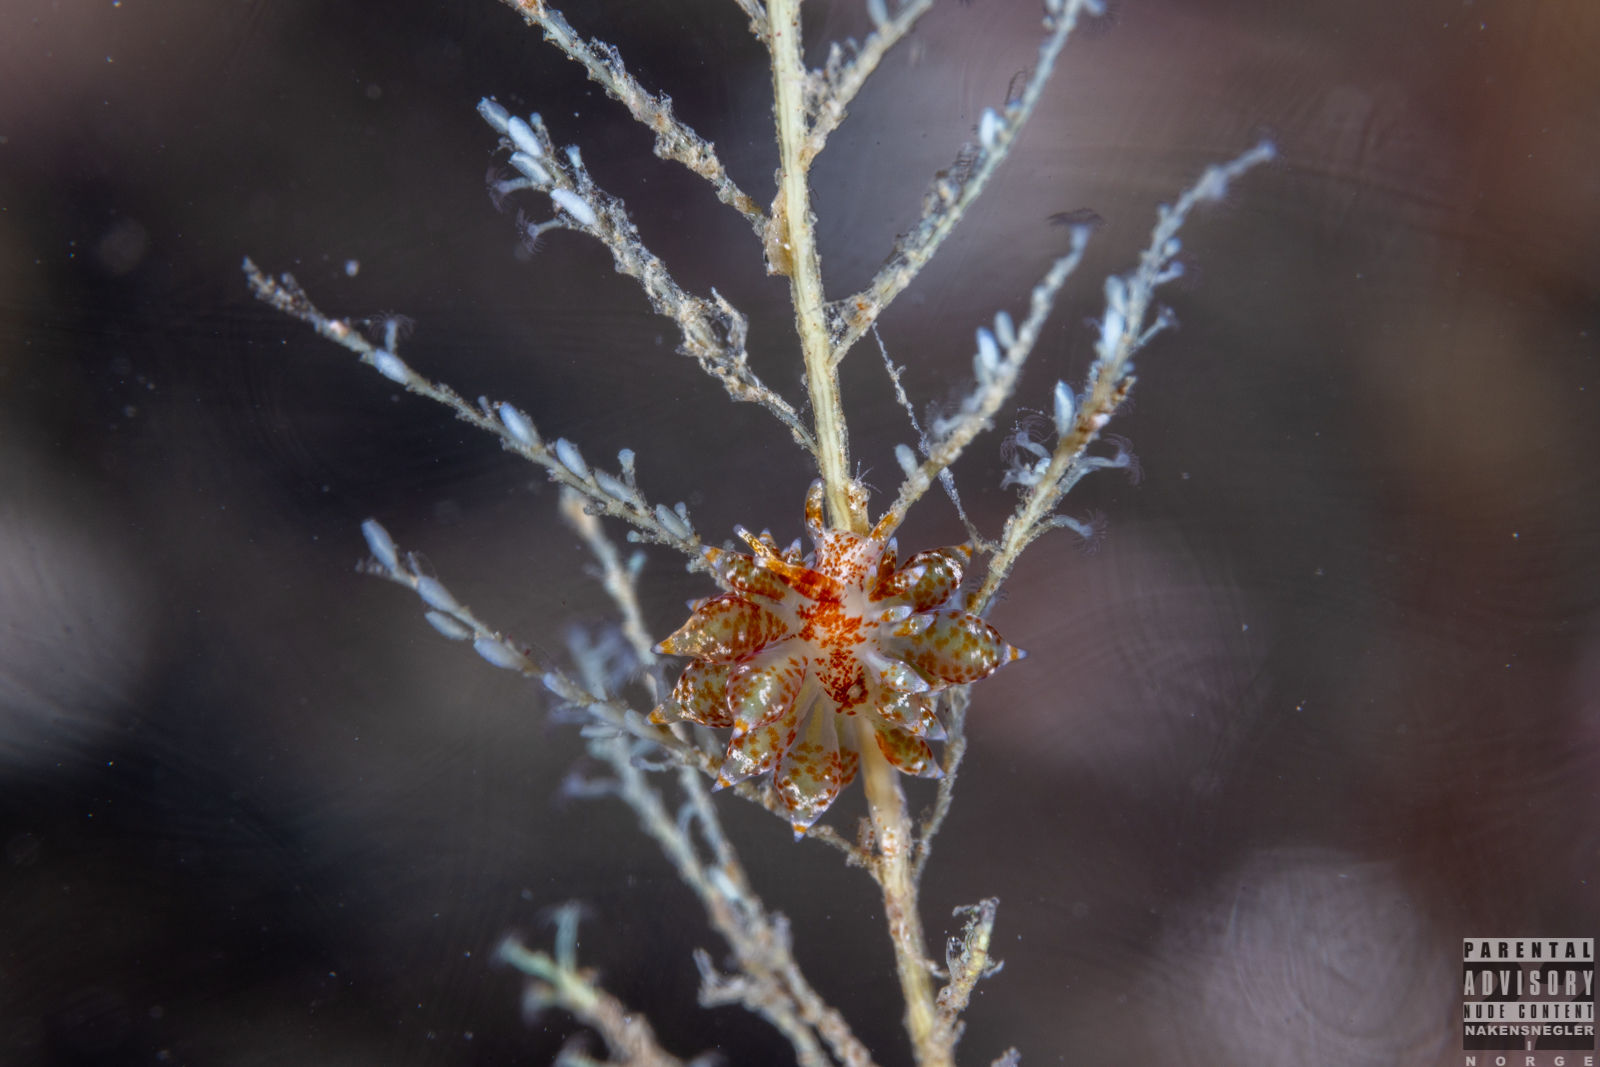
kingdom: Animalia
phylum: Mollusca
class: Gastropoda
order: Nudibranchia
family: Eubranchidae
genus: Amphorina
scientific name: Amphorina pallida
